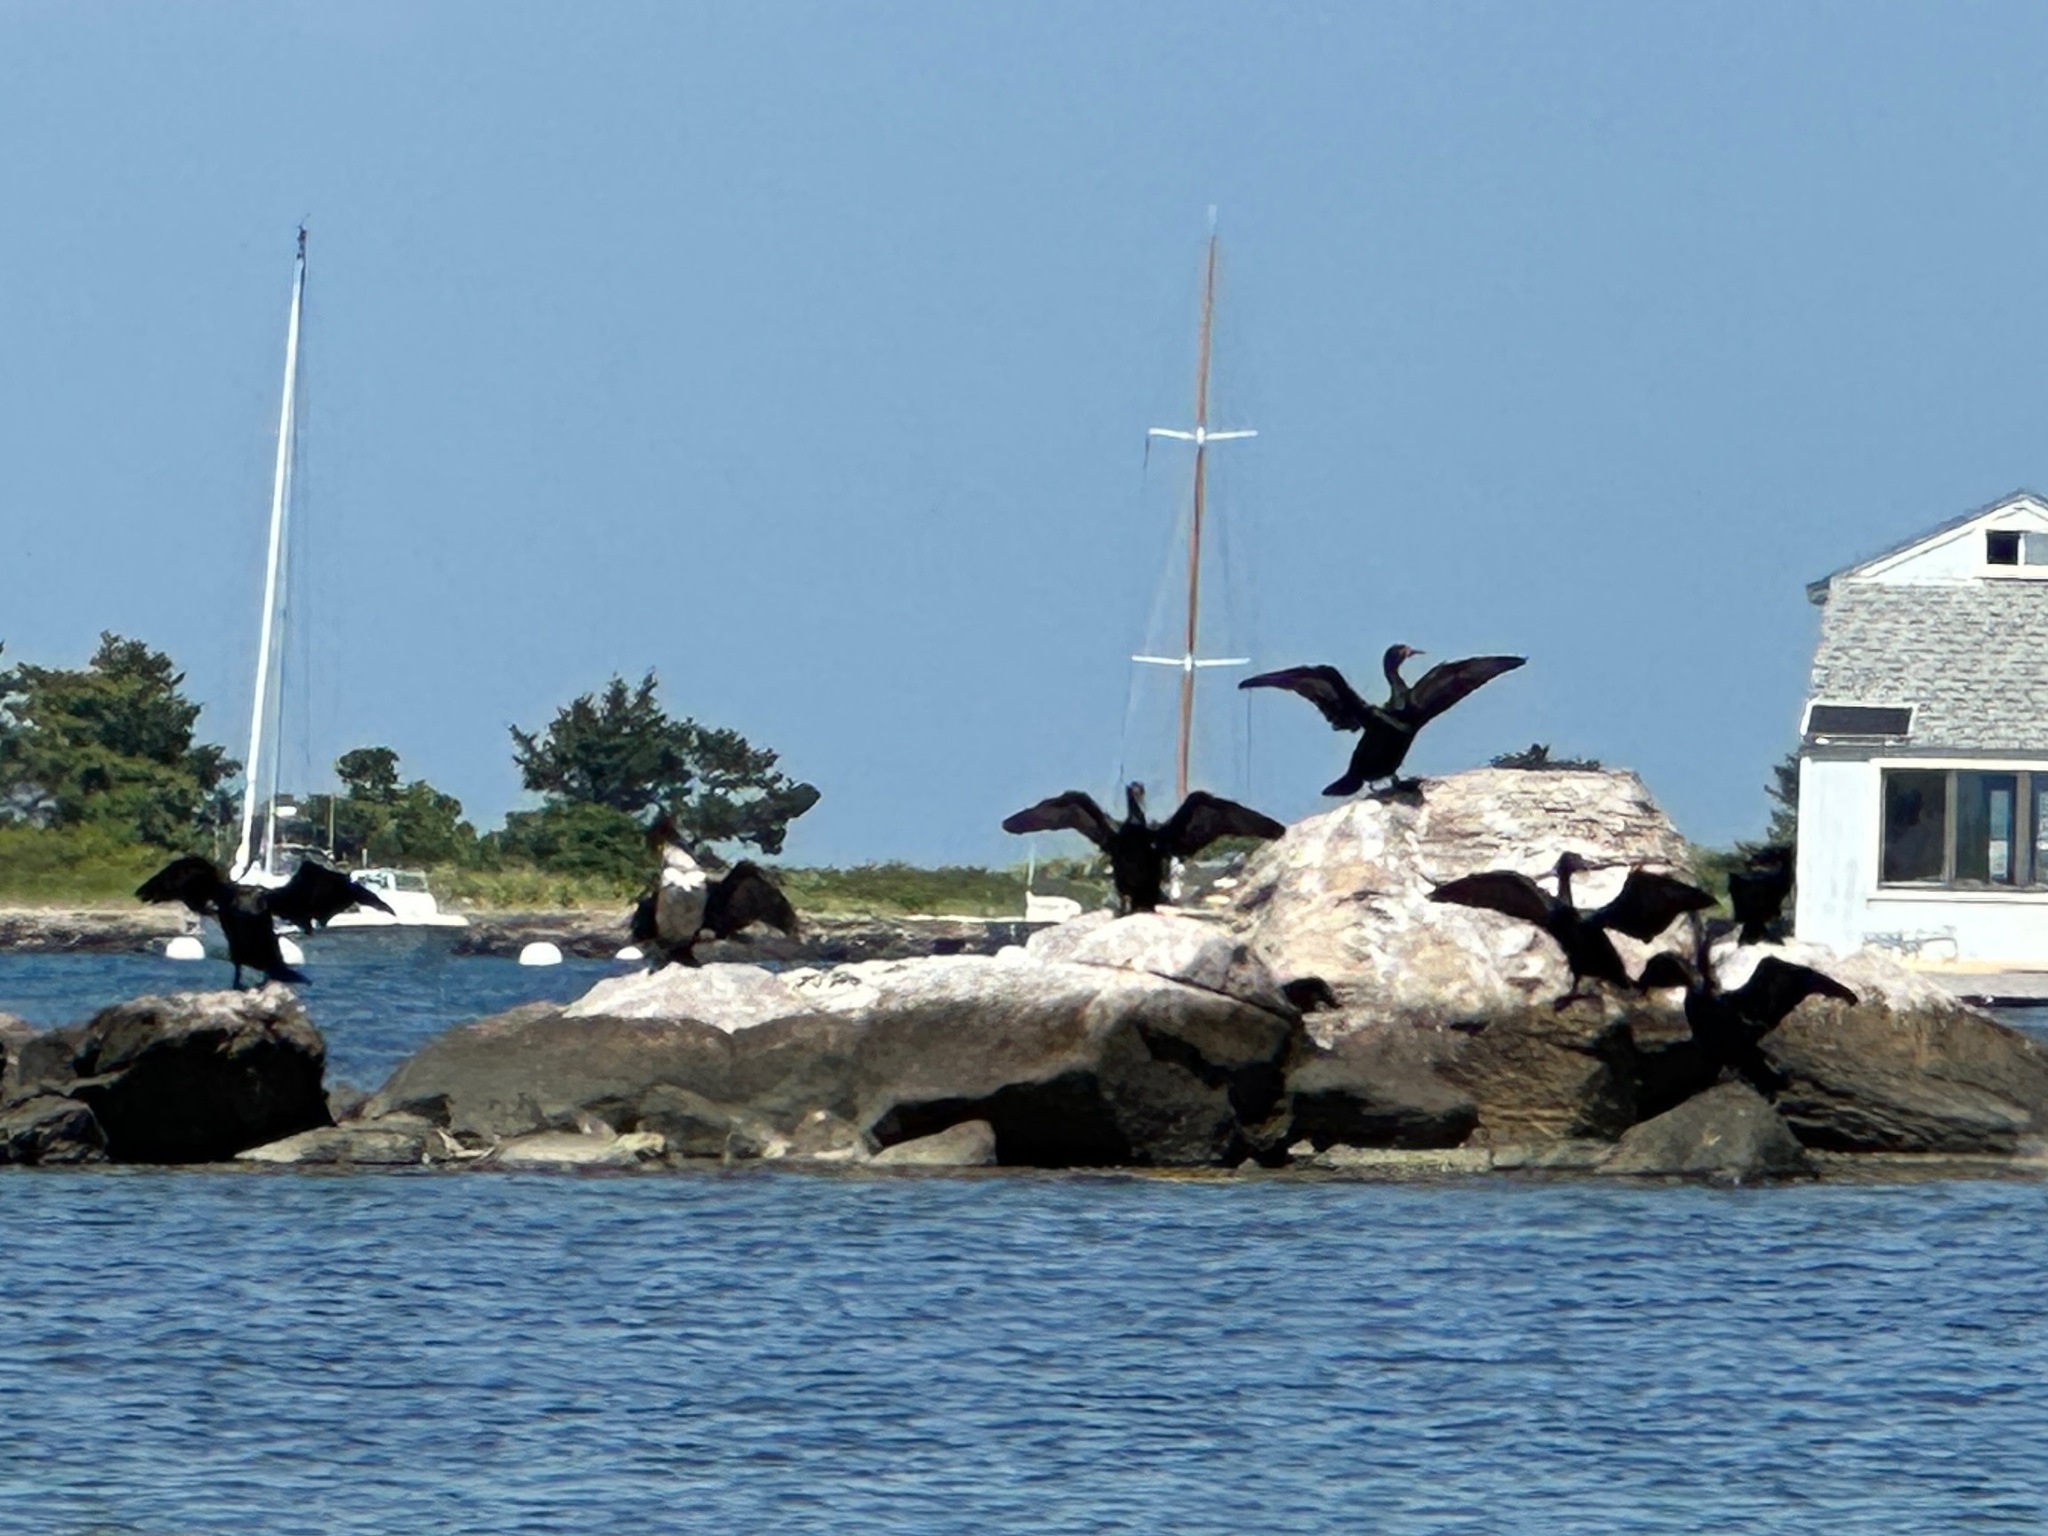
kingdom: Animalia
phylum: Chordata
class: Aves
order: Suliformes
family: Phalacrocoracidae
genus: Phalacrocorax
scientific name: Phalacrocorax auritus
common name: Double-crested cormorant
